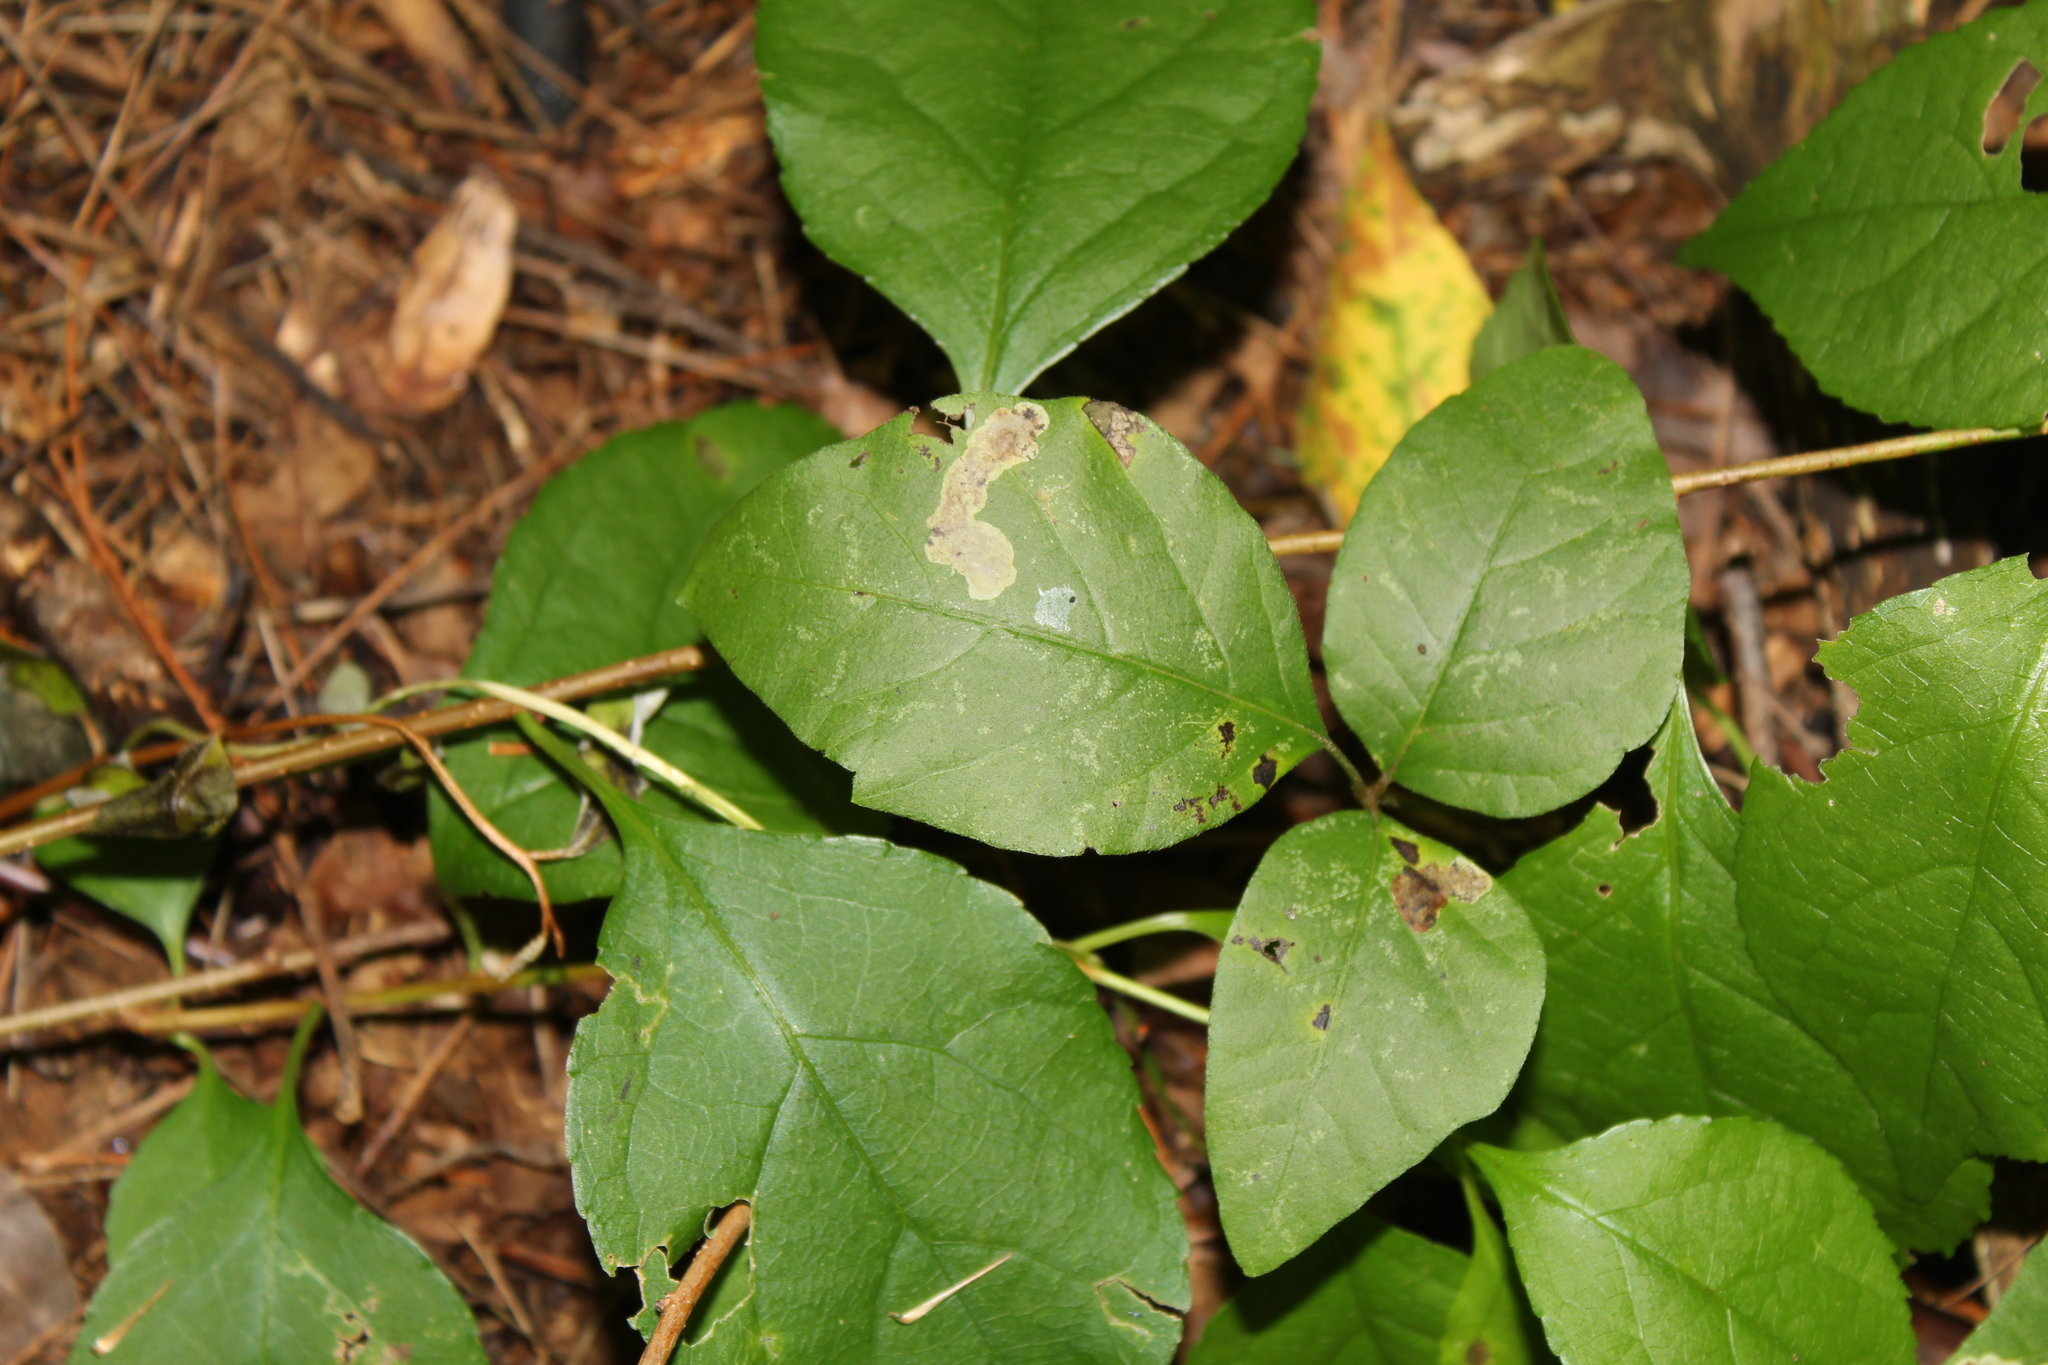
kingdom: Animalia
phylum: Arthropoda
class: Insecta
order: Lepidoptera
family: Gracillariidae
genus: Cameraria
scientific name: Cameraria guttifinitella
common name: Poison ivy leaf-miner moth
